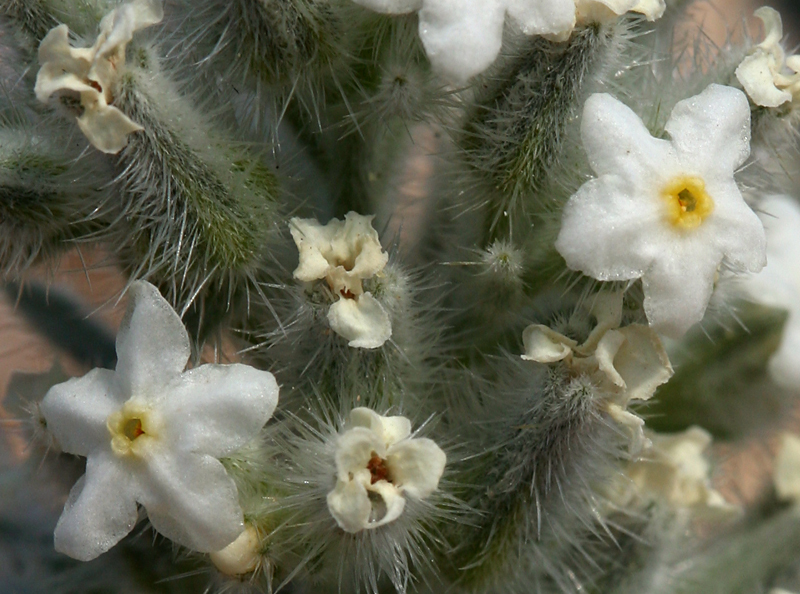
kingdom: Plantae
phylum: Tracheophyta
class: Magnoliopsida
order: Boraginales
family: Boraginaceae
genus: Oreocarya
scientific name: Oreocarya virginiensis
